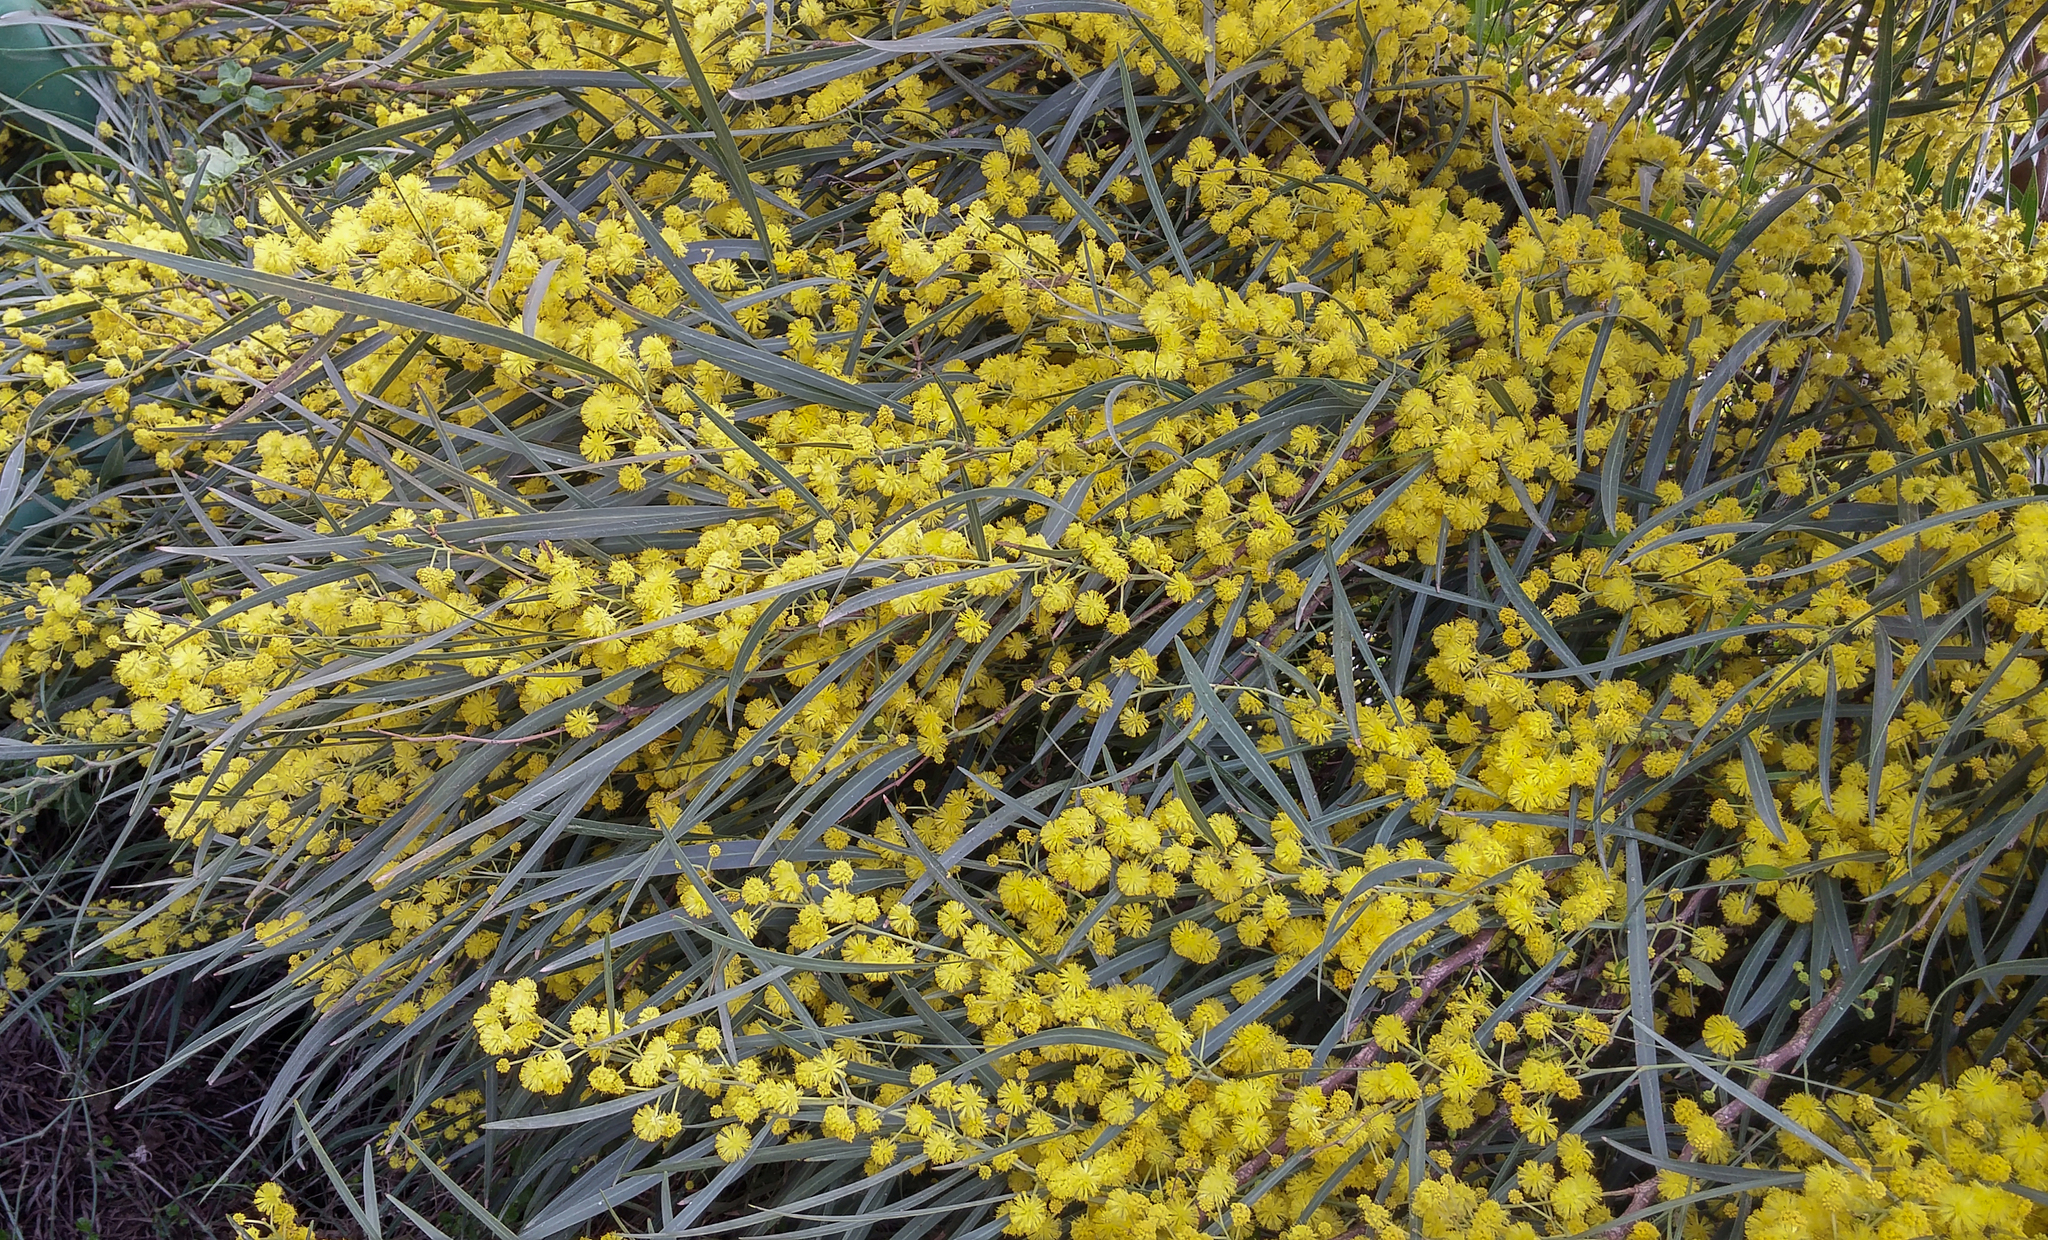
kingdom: Plantae
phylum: Tracheophyta
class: Magnoliopsida
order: Fabales
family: Fabaceae
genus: Acacia
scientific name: Acacia saligna
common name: Orange wattle
